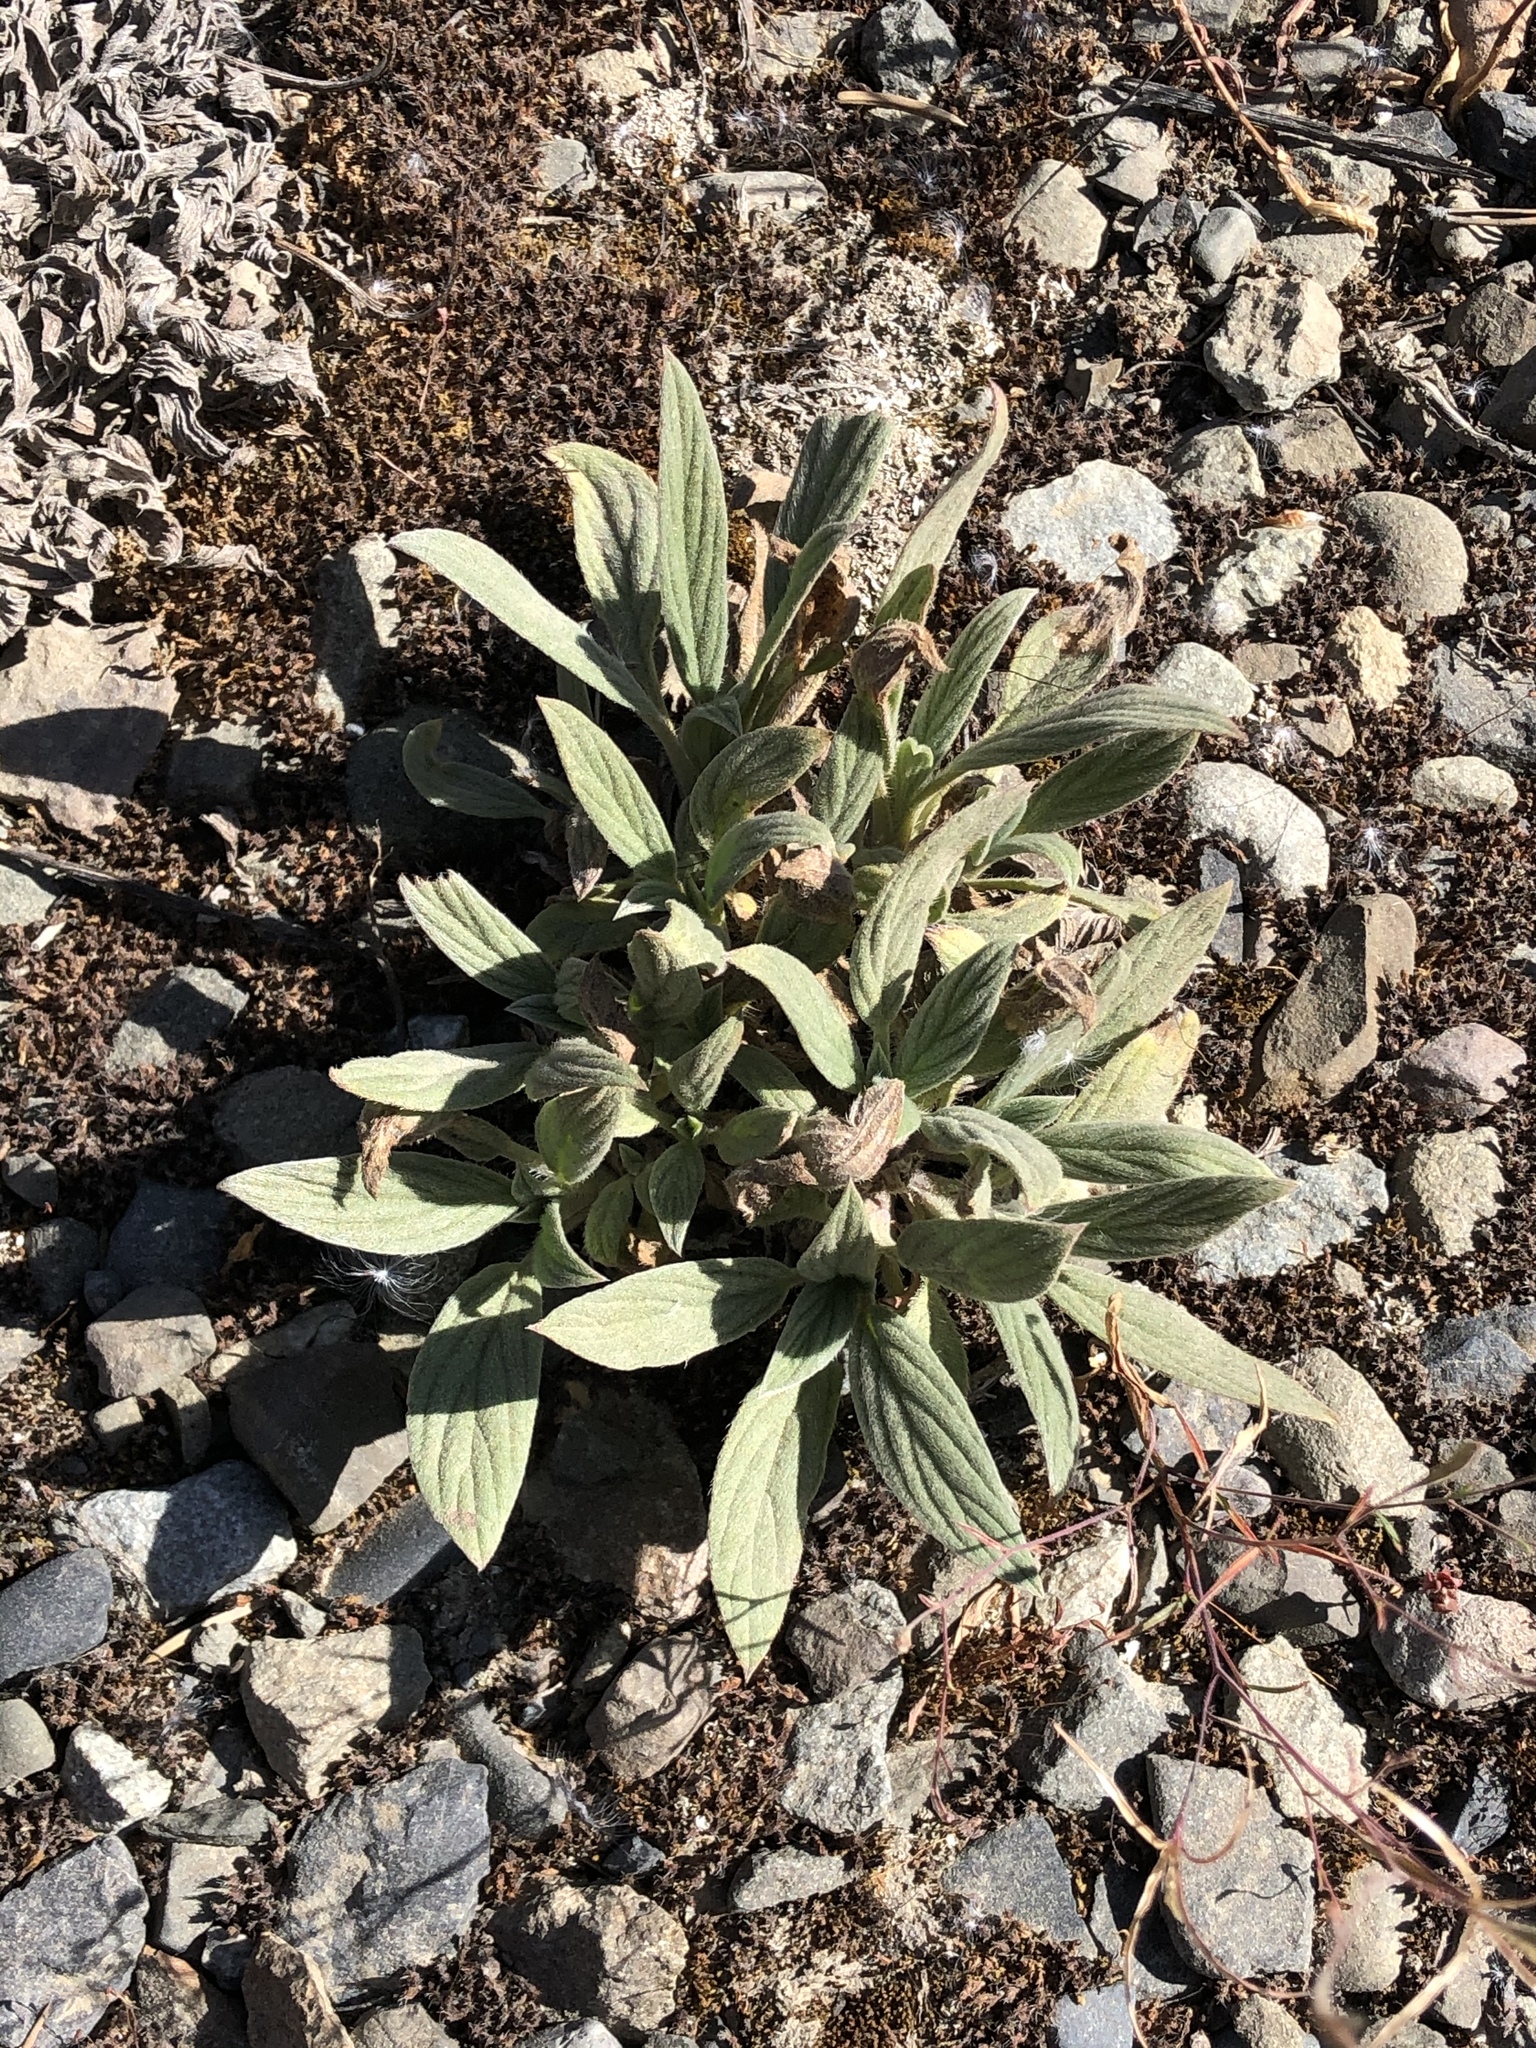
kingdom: Plantae
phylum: Tracheophyta
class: Magnoliopsida
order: Boraginales
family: Hydrophyllaceae
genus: Phacelia
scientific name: Phacelia hastata
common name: Silver-leaved phacelia
